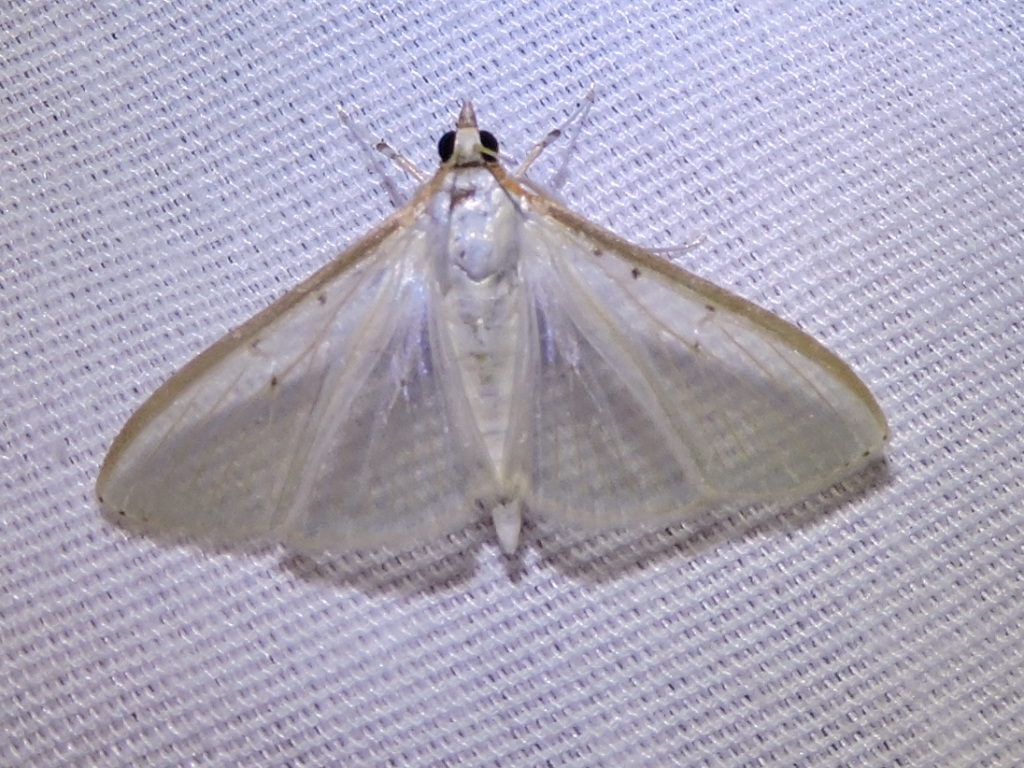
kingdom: Animalia
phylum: Arthropoda
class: Insecta
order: Lepidoptera
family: Crambidae
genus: Palpita
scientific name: Palpita quadristigmalis
